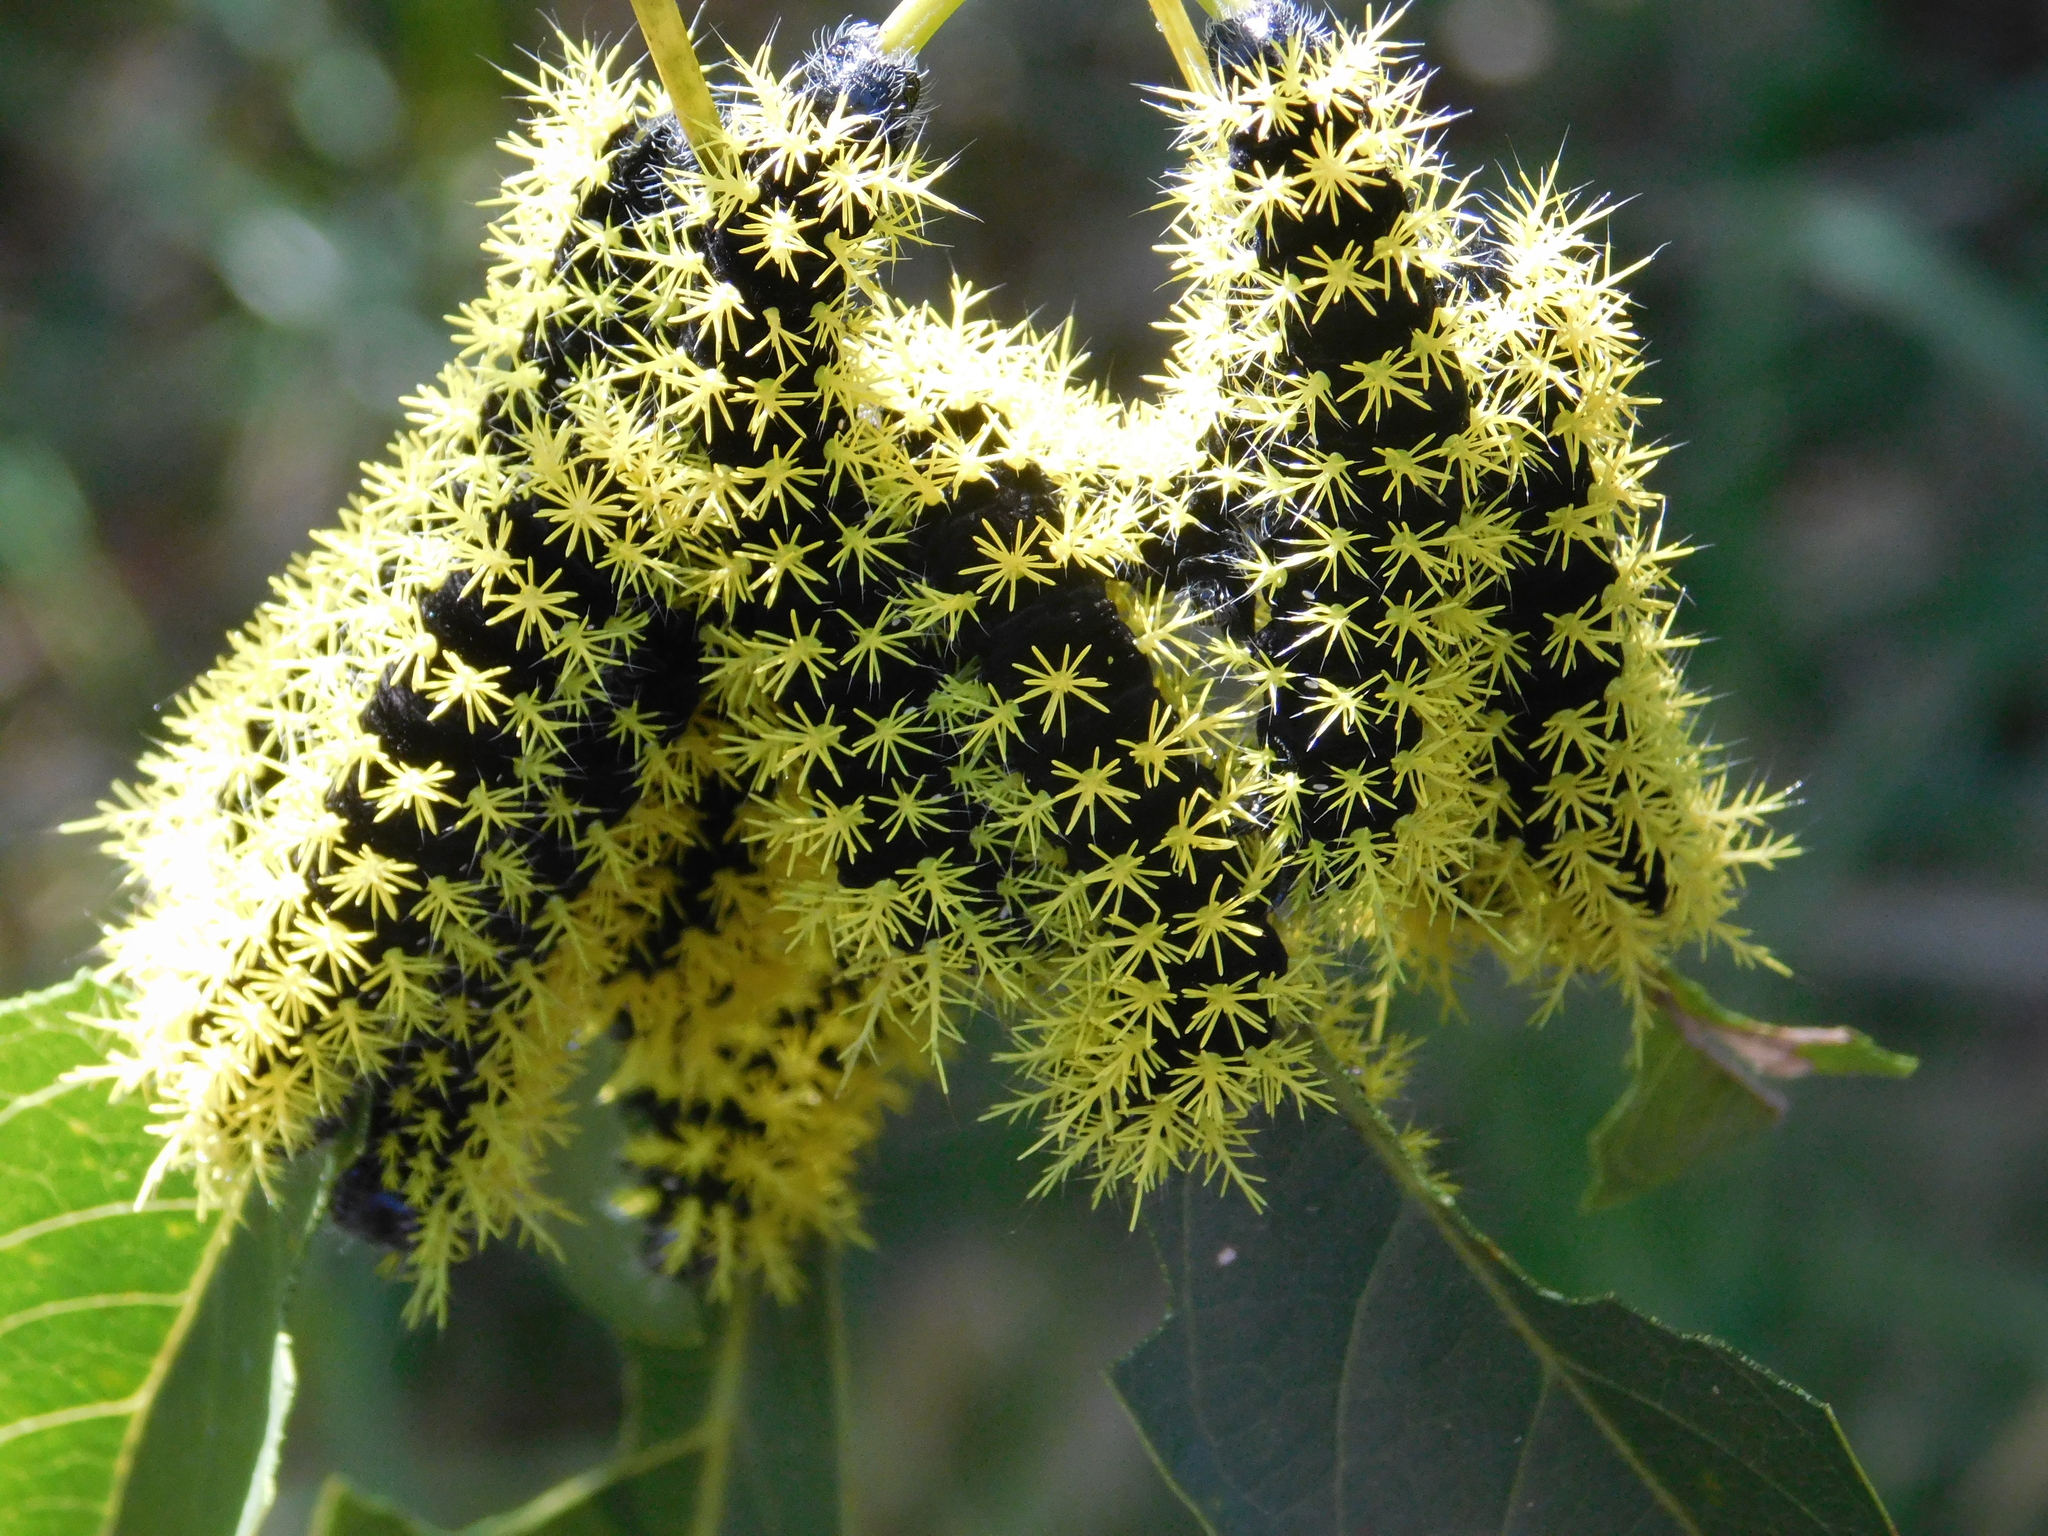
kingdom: Animalia
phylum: Arthropoda
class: Insecta
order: Lepidoptera
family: Saturniidae
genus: Leucanella
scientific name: Leucanella viridescens
